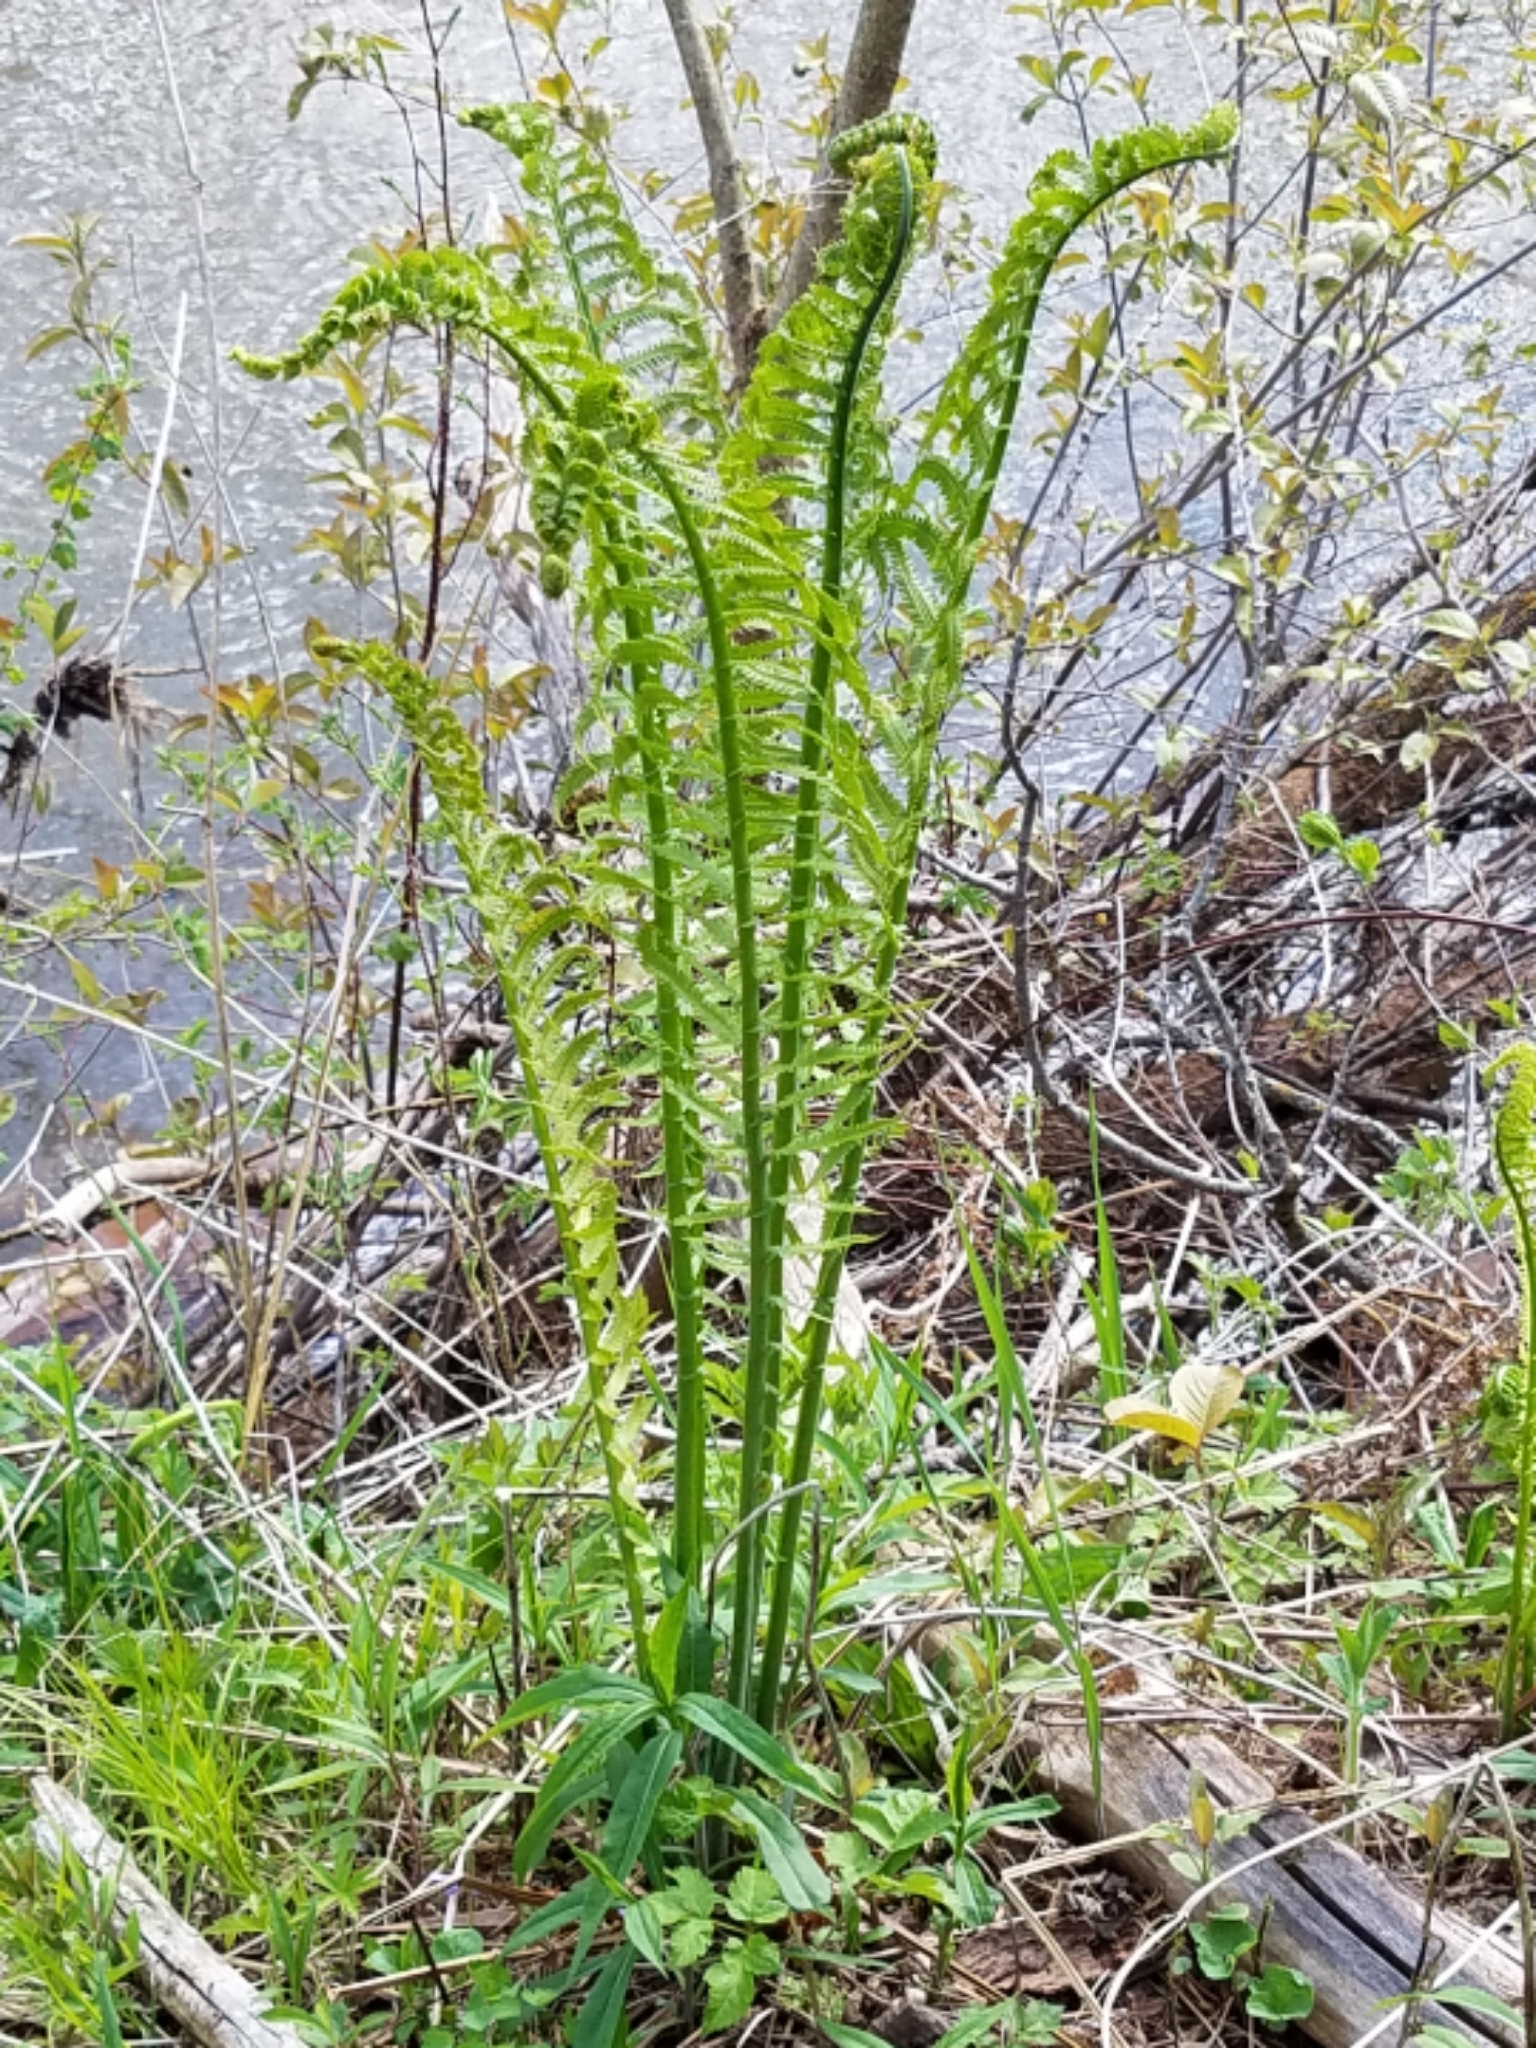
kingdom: Plantae
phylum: Tracheophyta
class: Polypodiopsida
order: Polypodiales
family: Onocleaceae
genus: Matteuccia
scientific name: Matteuccia struthiopteris
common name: Ostrich fern
